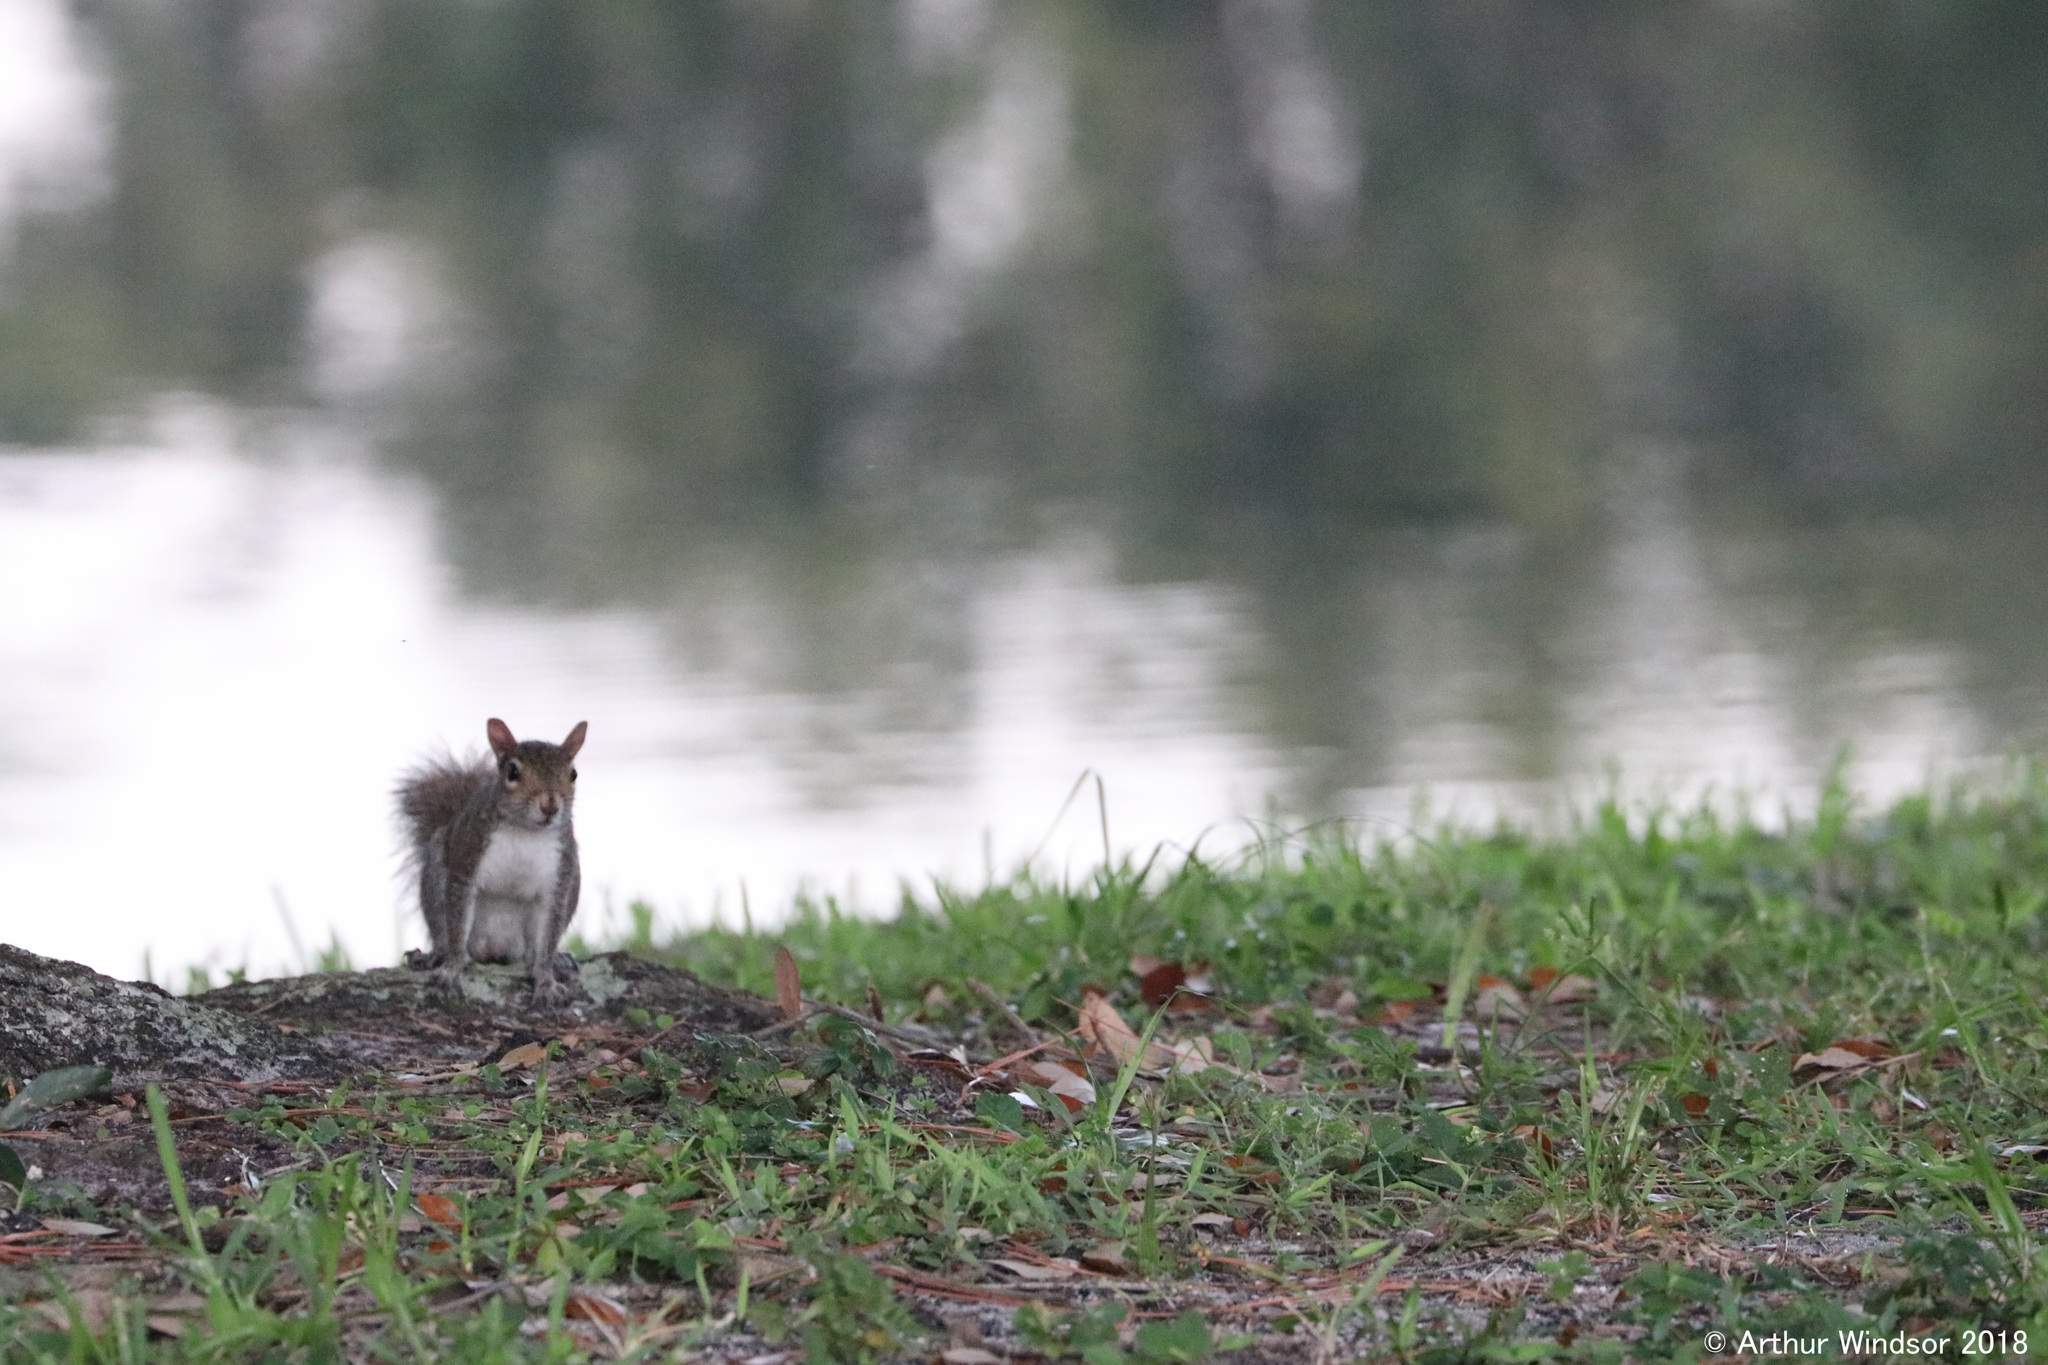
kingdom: Animalia
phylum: Chordata
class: Mammalia
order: Rodentia
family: Sciuridae
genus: Sciurus
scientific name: Sciurus carolinensis
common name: Eastern gray squirrel
